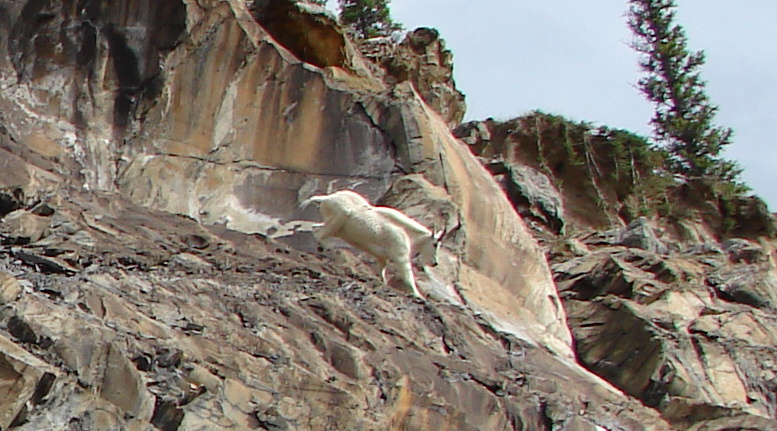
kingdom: Animalia
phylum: Chordata
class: Mammalia
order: Artiodactyla
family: Bovidae
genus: Oreamnos
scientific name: Oreamnos americanus
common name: Mountain goat
